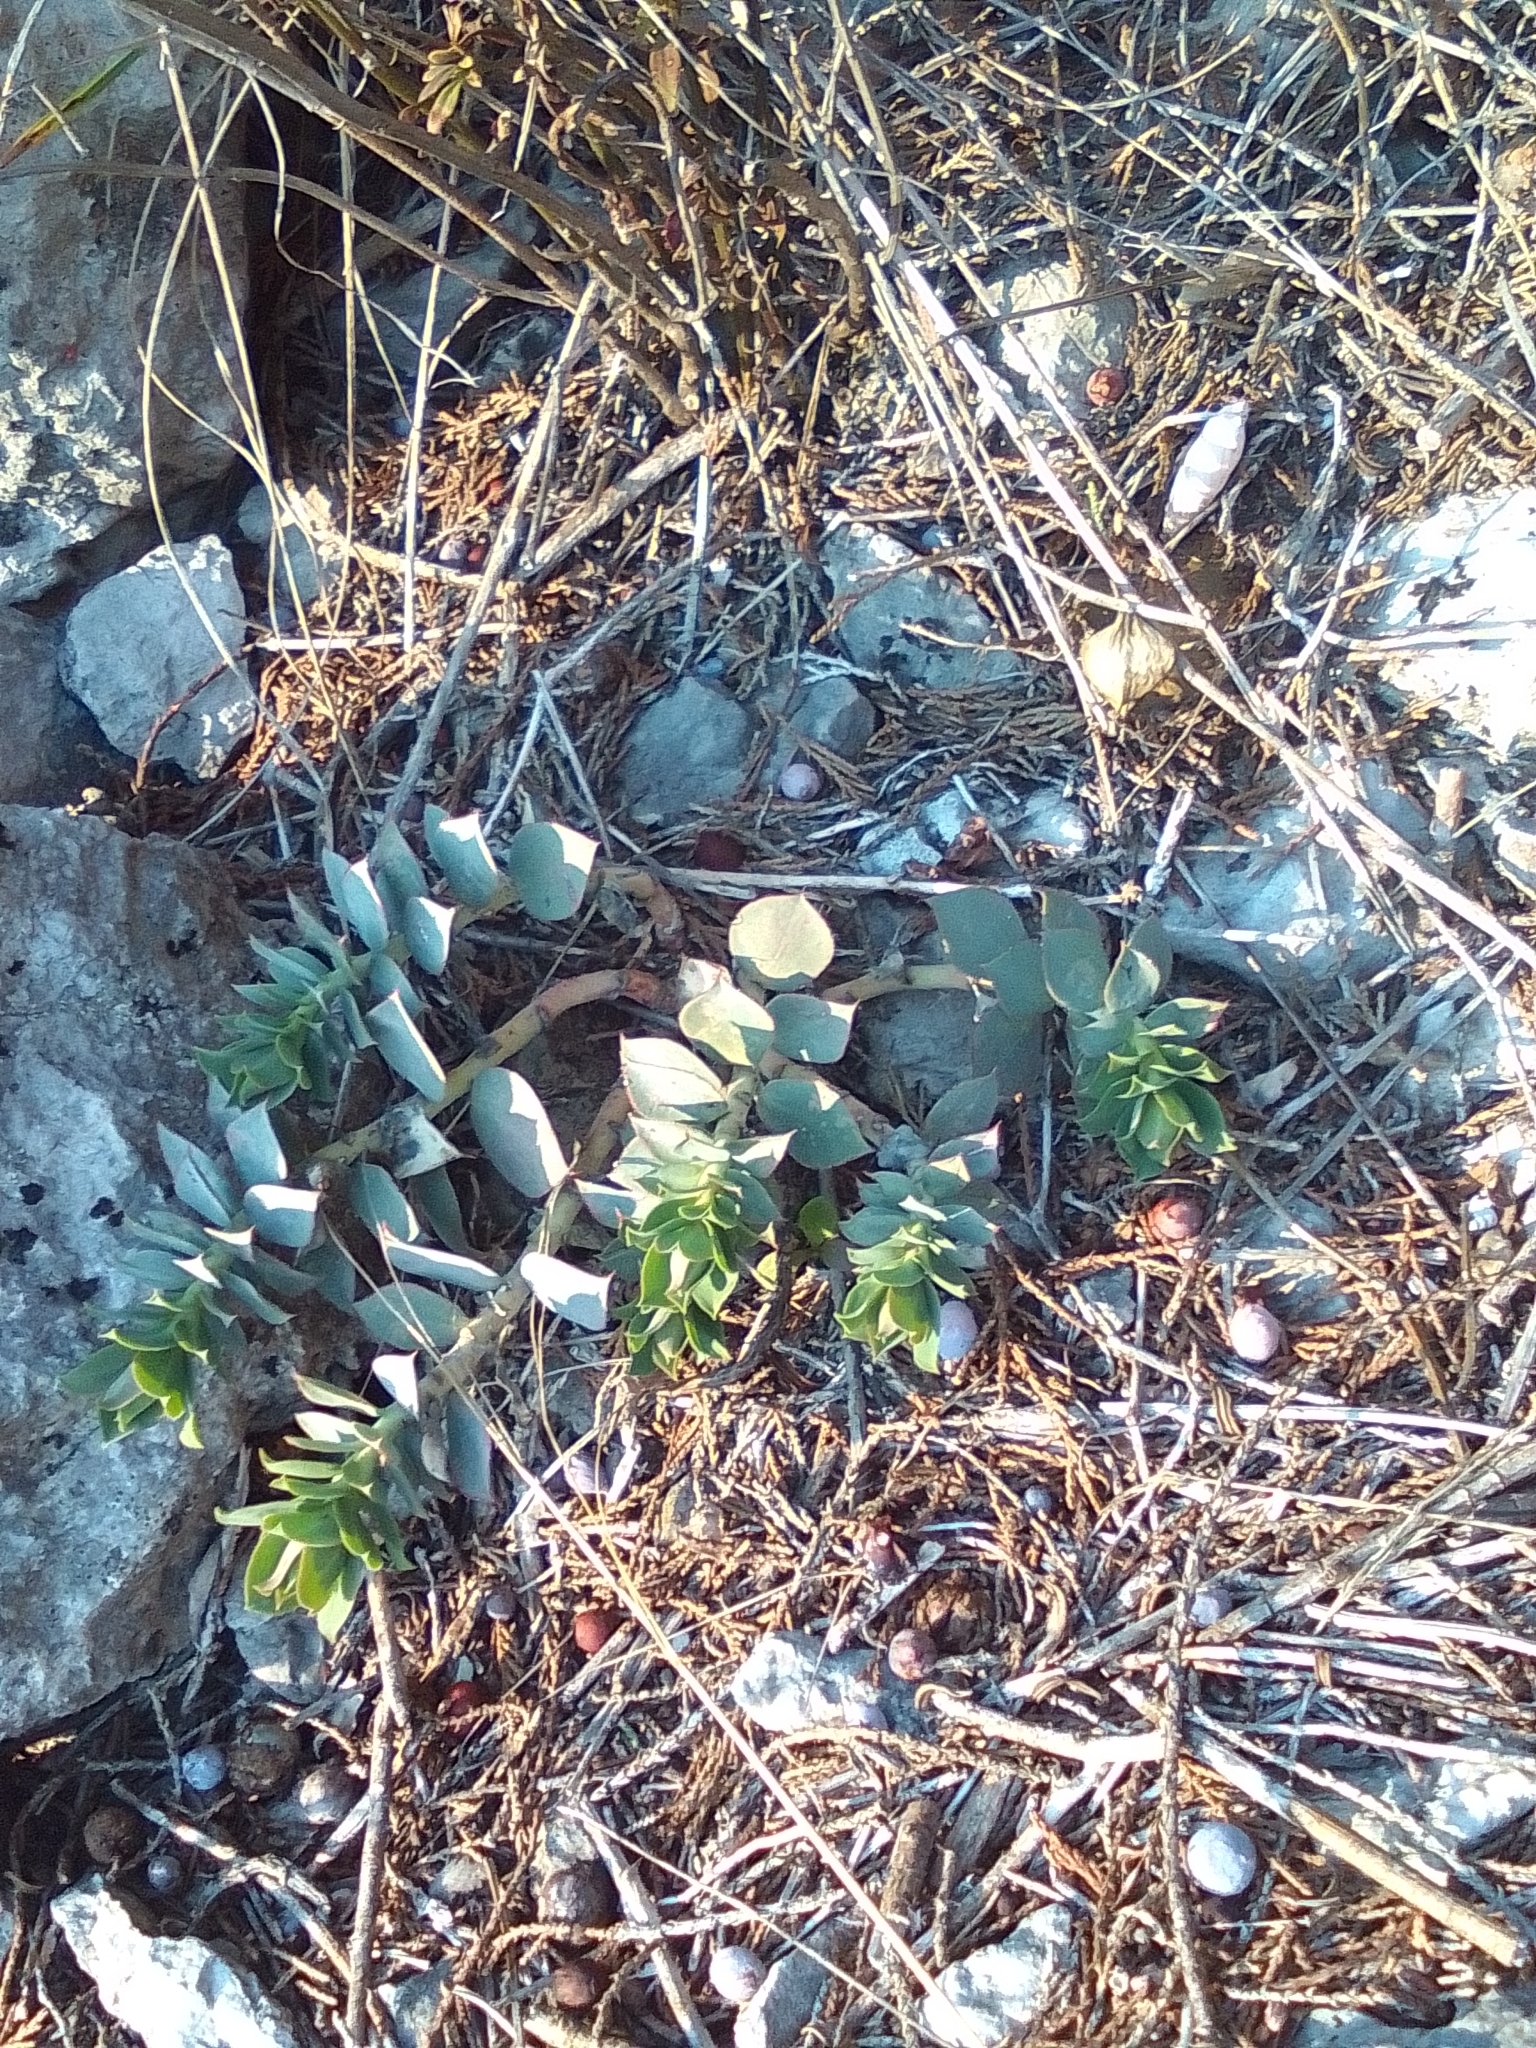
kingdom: Plantae
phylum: Tracheophyta
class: Magnoliopsida
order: Malpighiales
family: Euphorbiaceae
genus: Euphorbia
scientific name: Euphorbia myrsinites
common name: Myrtle spurge
